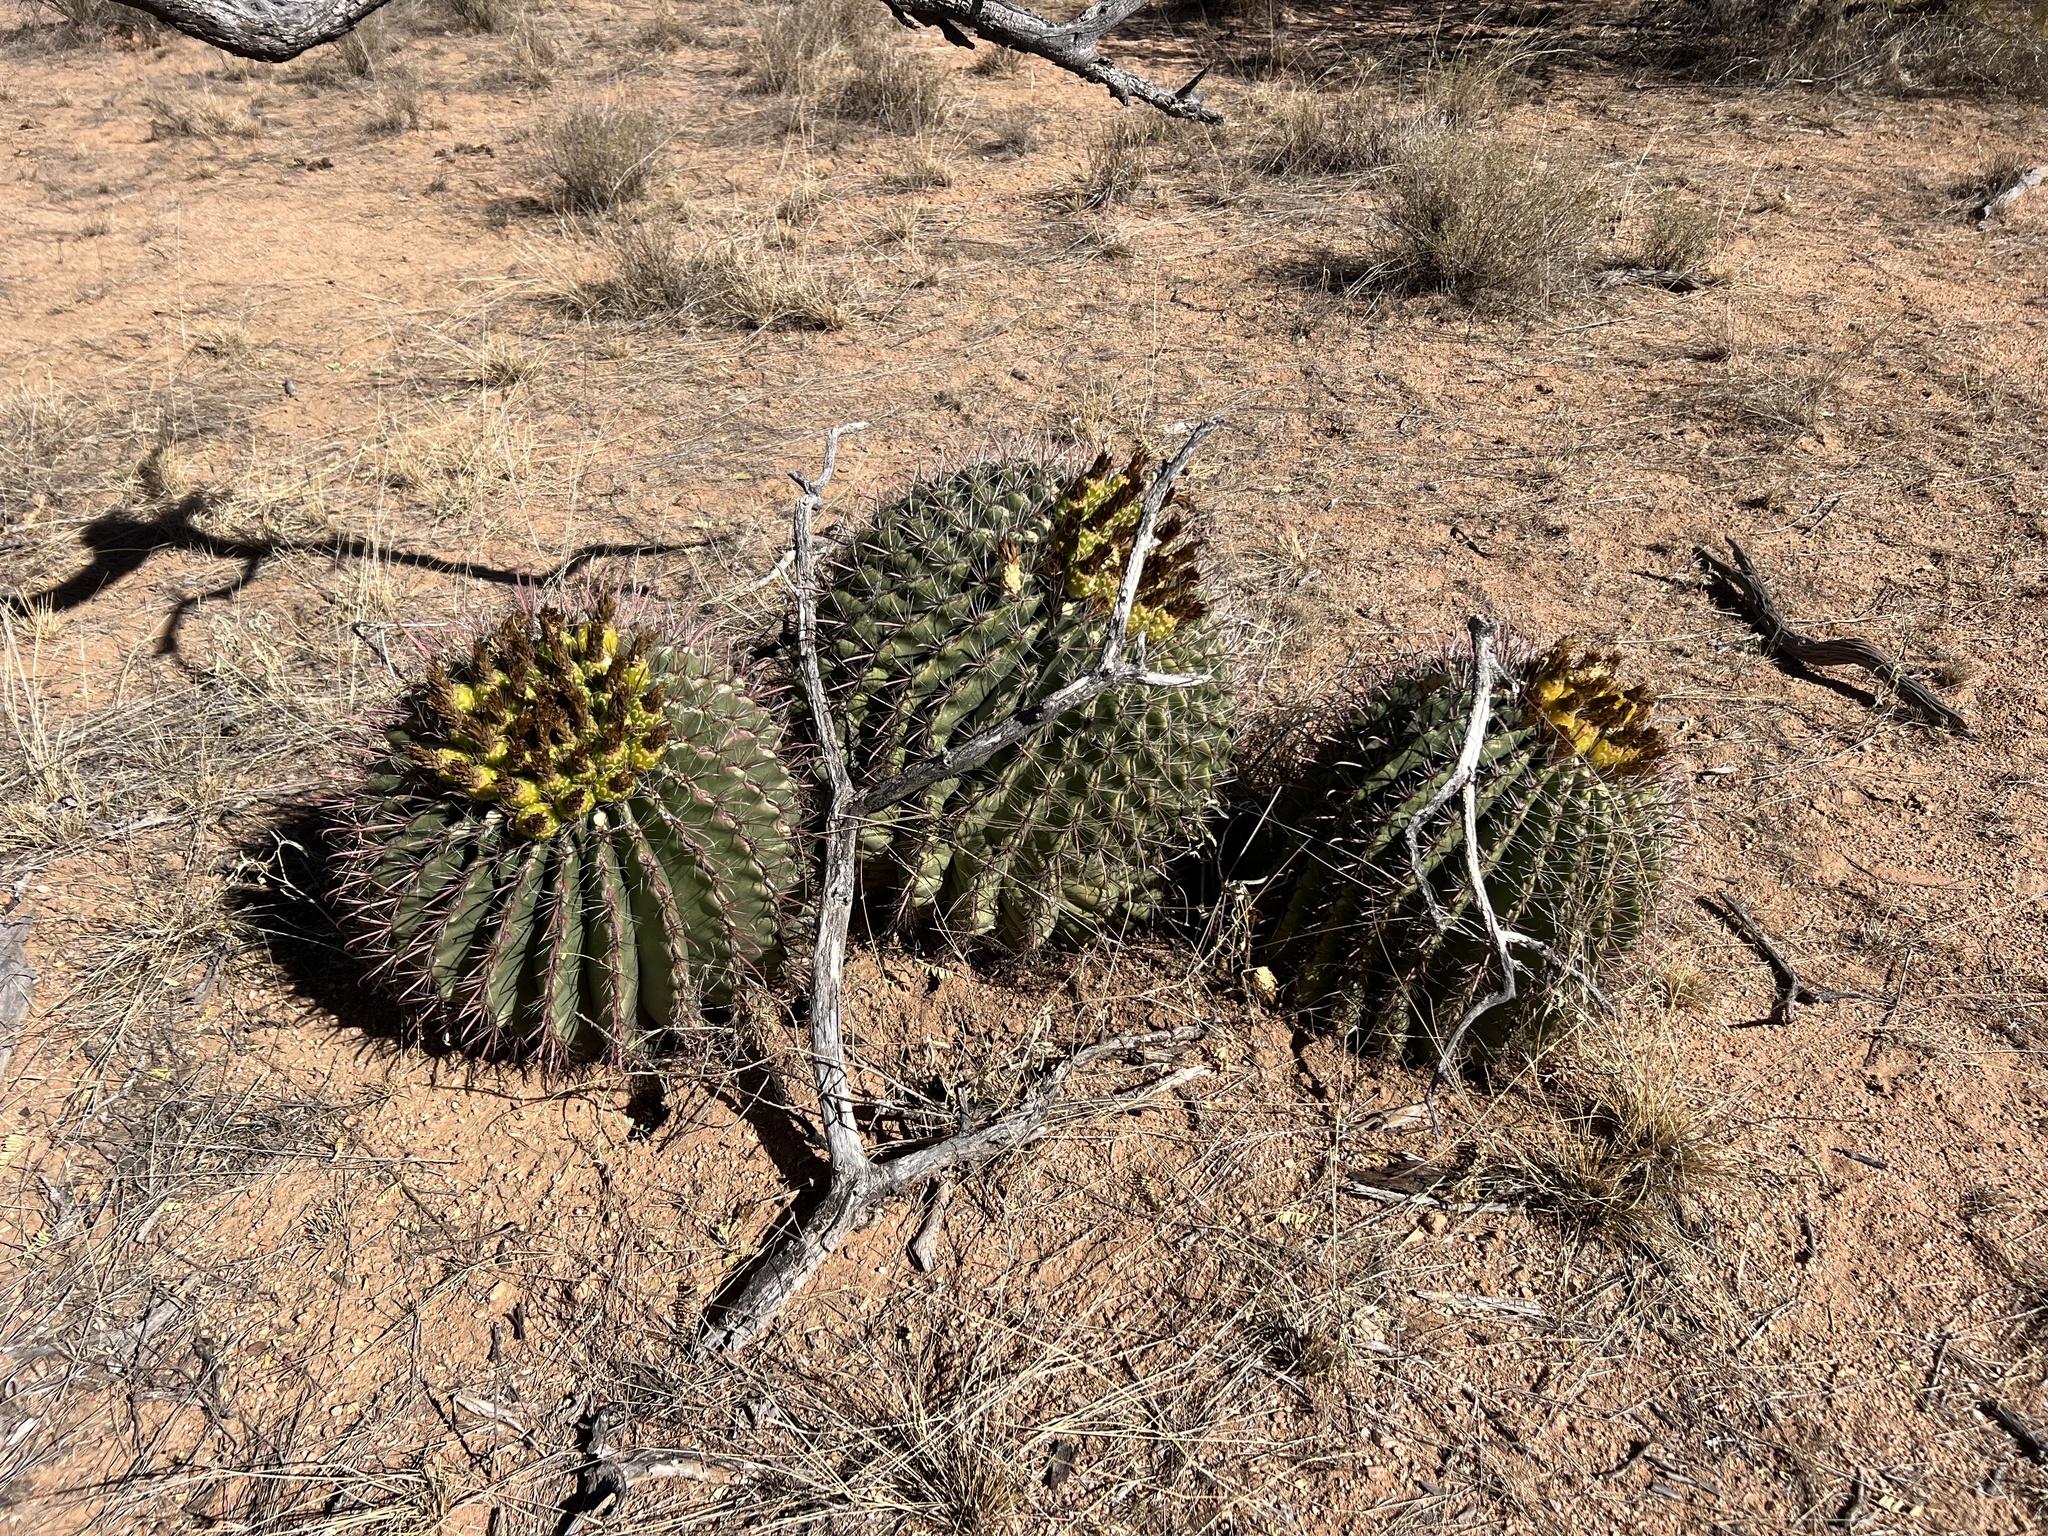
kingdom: Plantae
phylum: Tracheophyta
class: Magnoliopsida
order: Caryophyllales
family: Cactaceae
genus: Ferocactus
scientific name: Ferocactus wislizeni
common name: Candy barrel cactus
